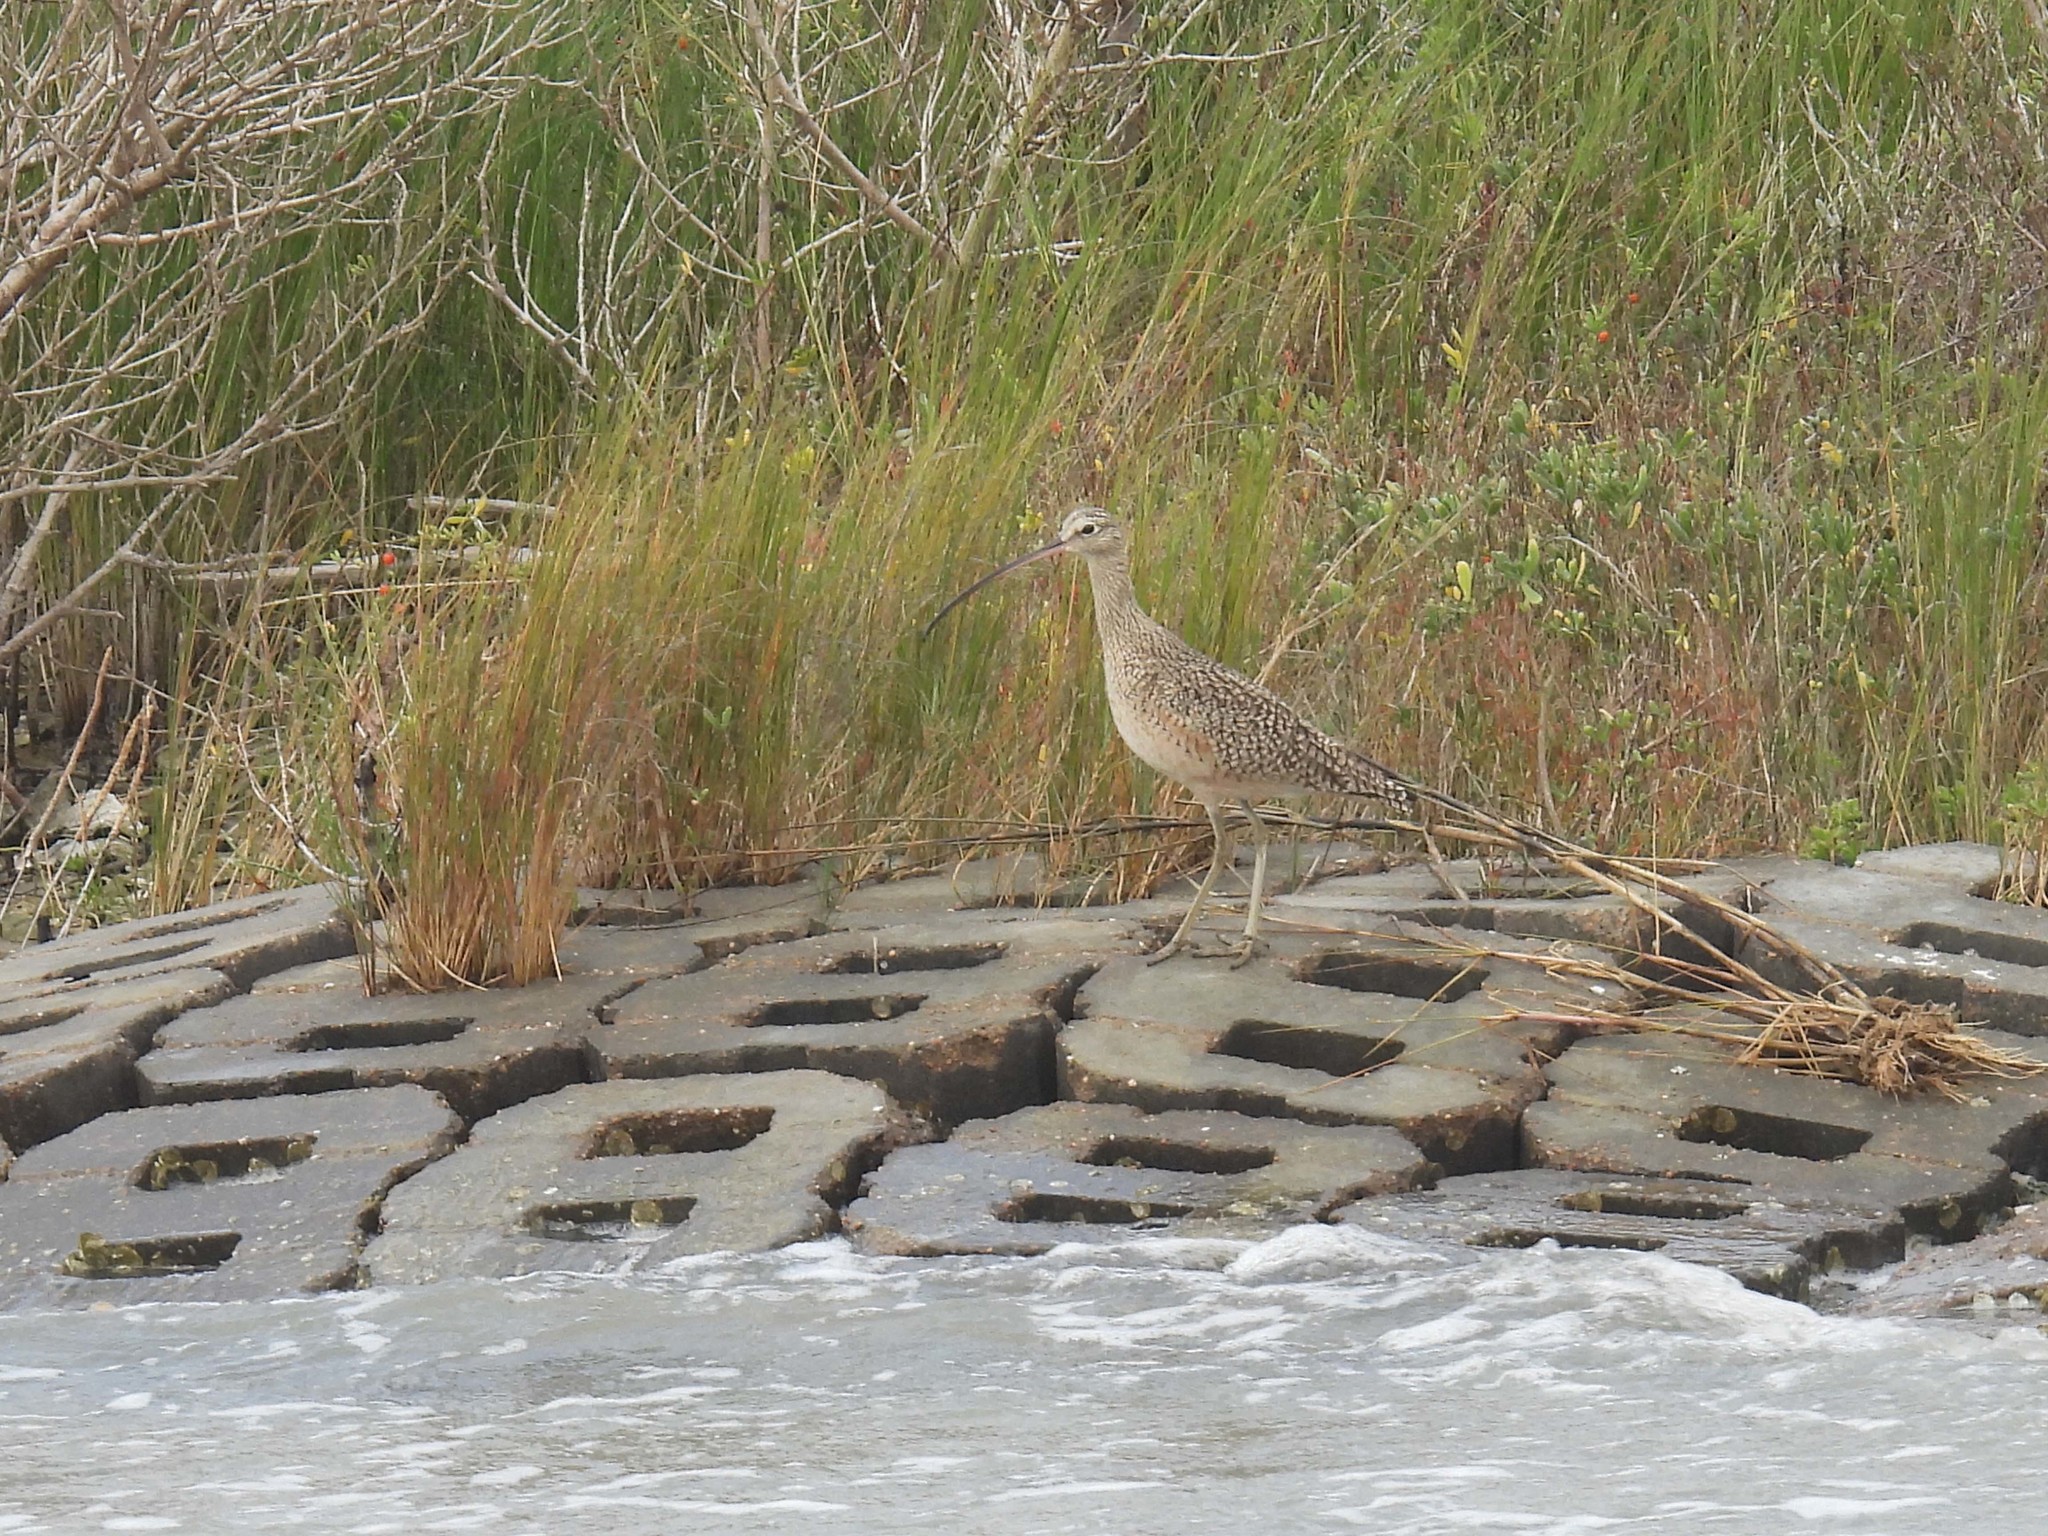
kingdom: Animalia
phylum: Chordata
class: Aves
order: Charadriiformes
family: Scolopacidae
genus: Numenius
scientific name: Numenius americanus
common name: Long-billed curlew
